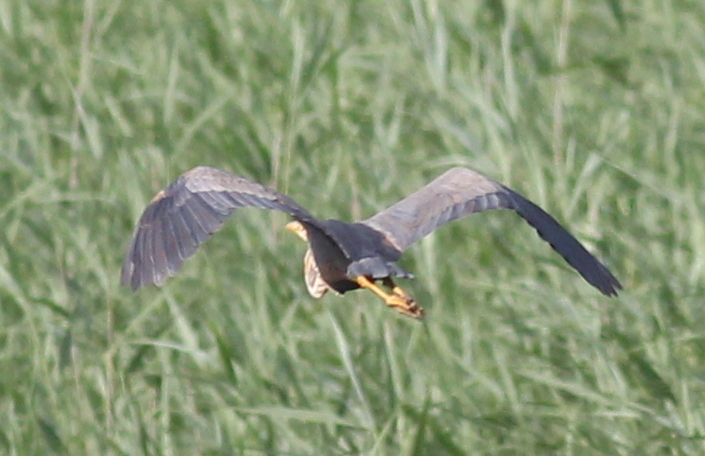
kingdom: Animalia
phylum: Chordata
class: Aves
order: Pelecaniformes
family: Ardeidae
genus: Ardea
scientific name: Ardea purpurea
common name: Purple heron
